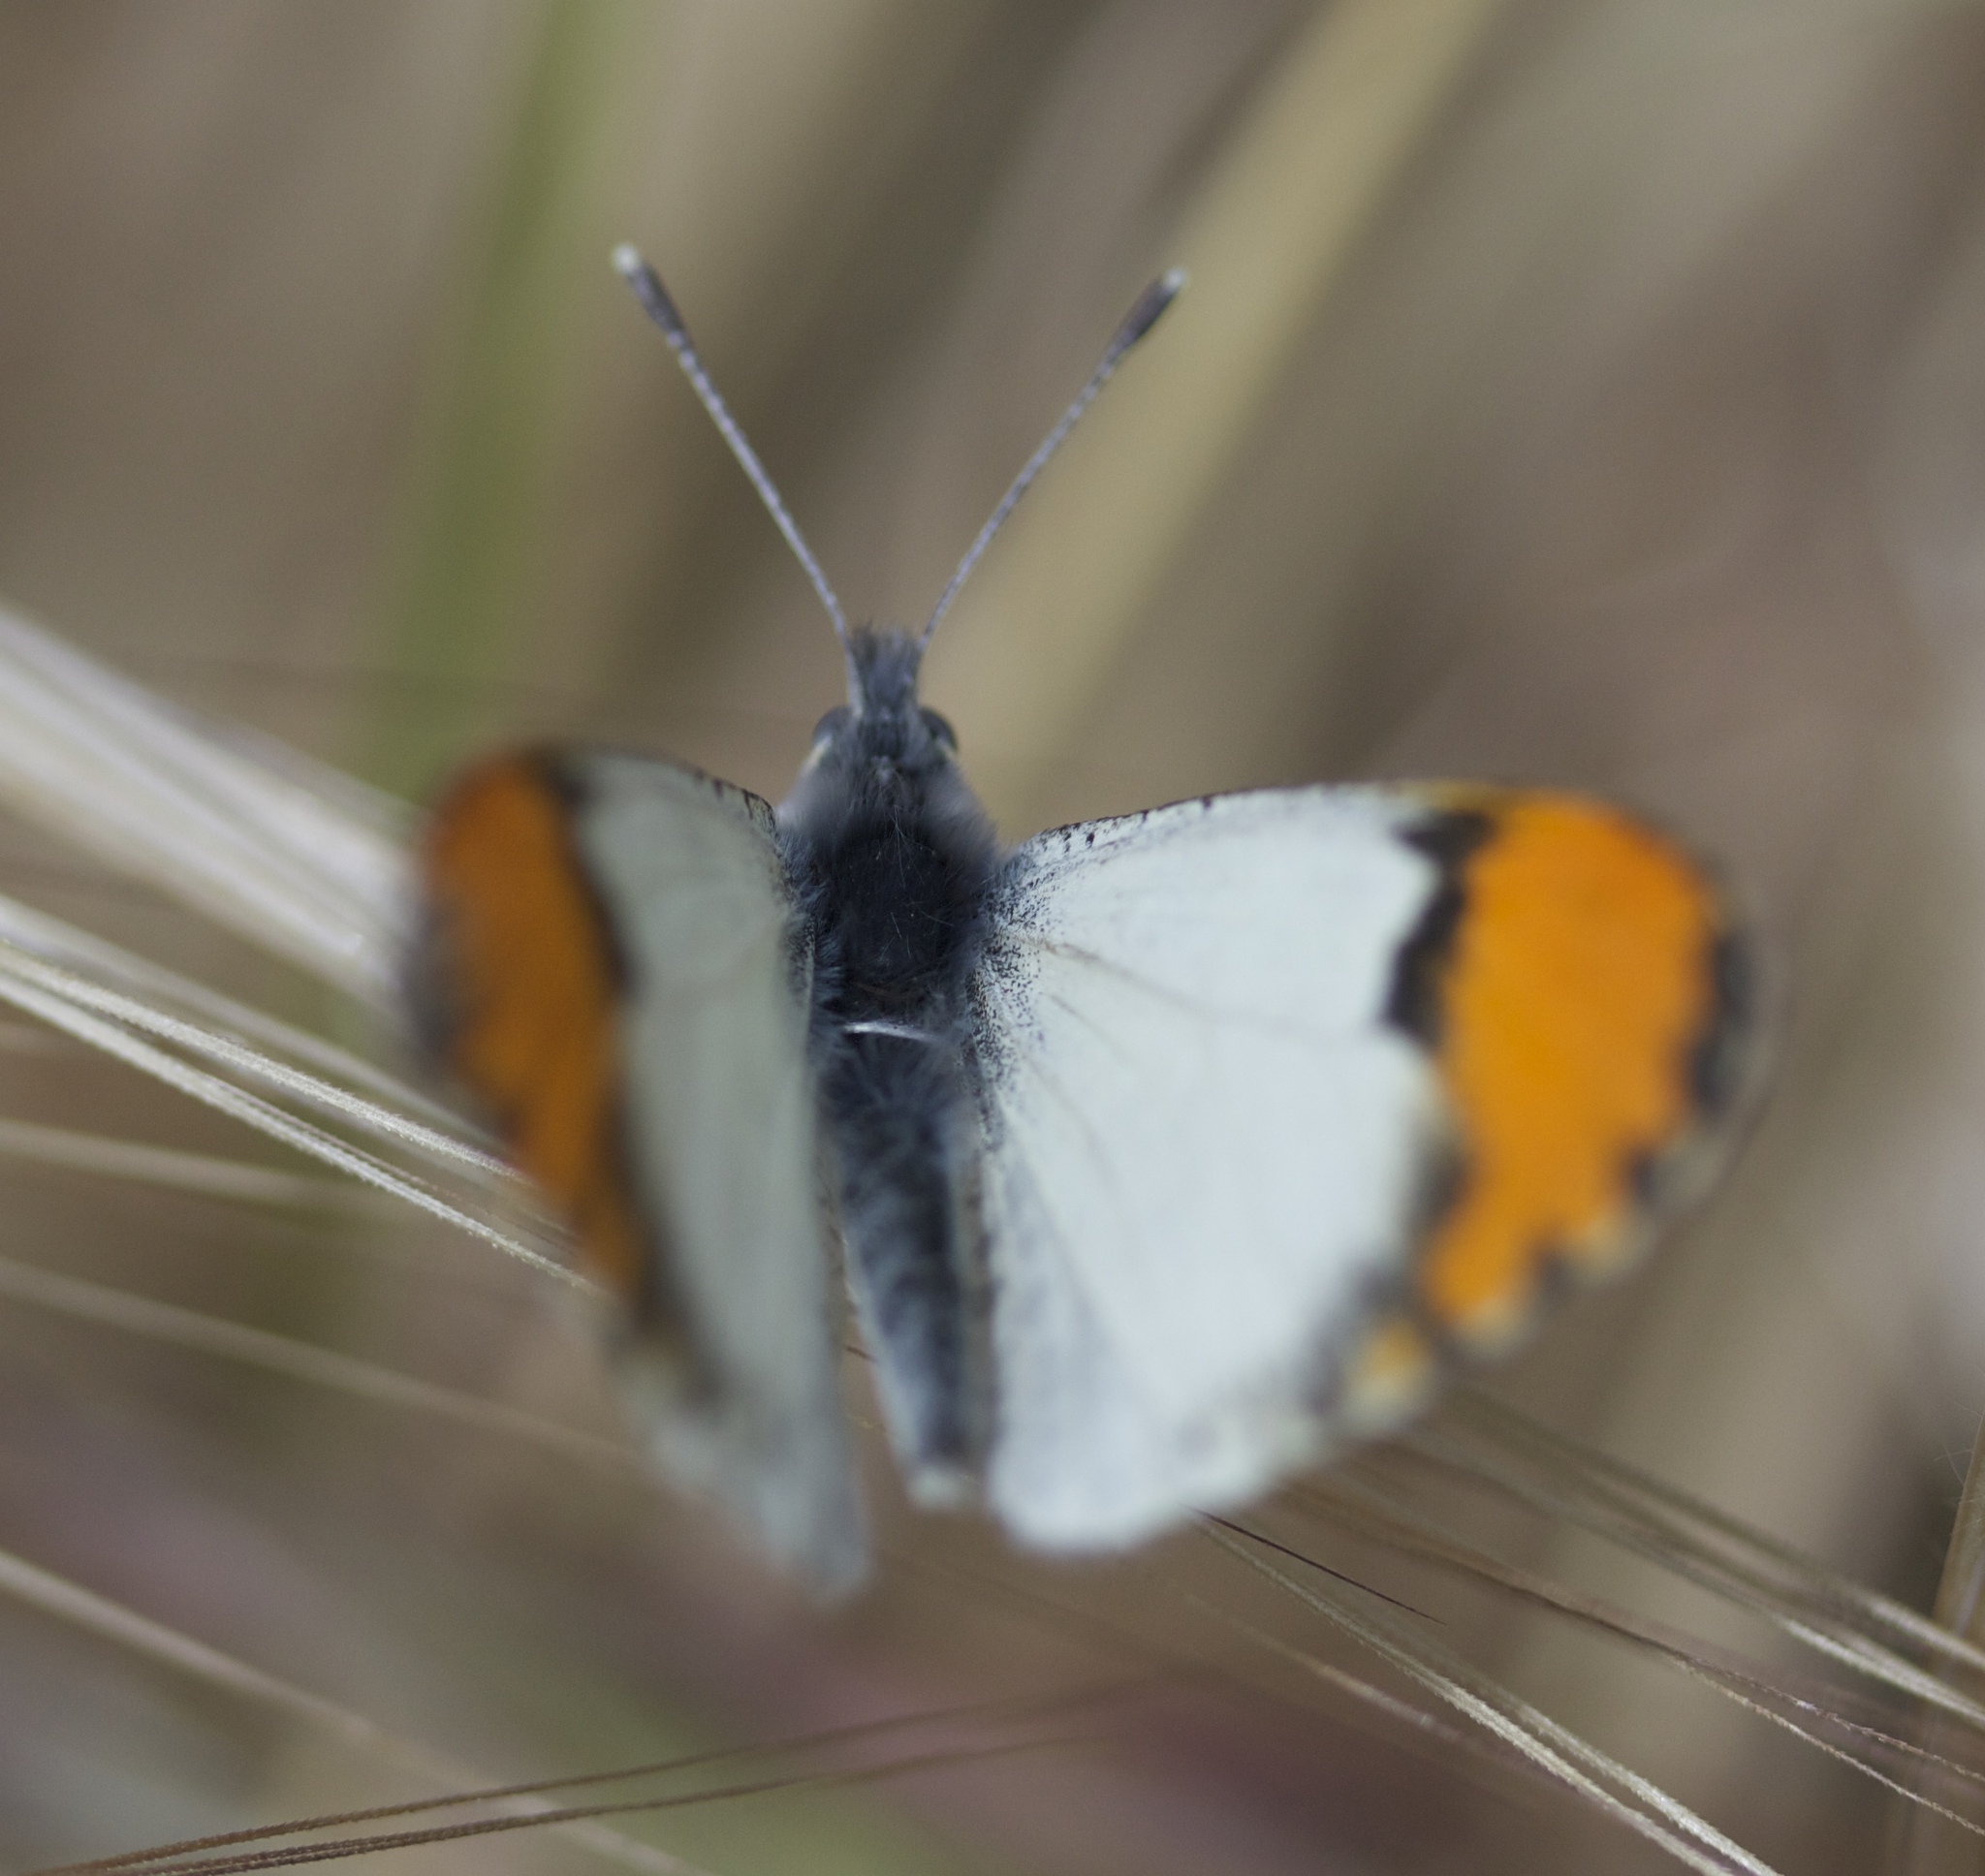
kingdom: Animalia
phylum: Arthropoda
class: Insecta
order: Lepidoptera
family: Pieridae
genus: Anthocharis
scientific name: Anthocharis sara
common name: Sara's orangetip
